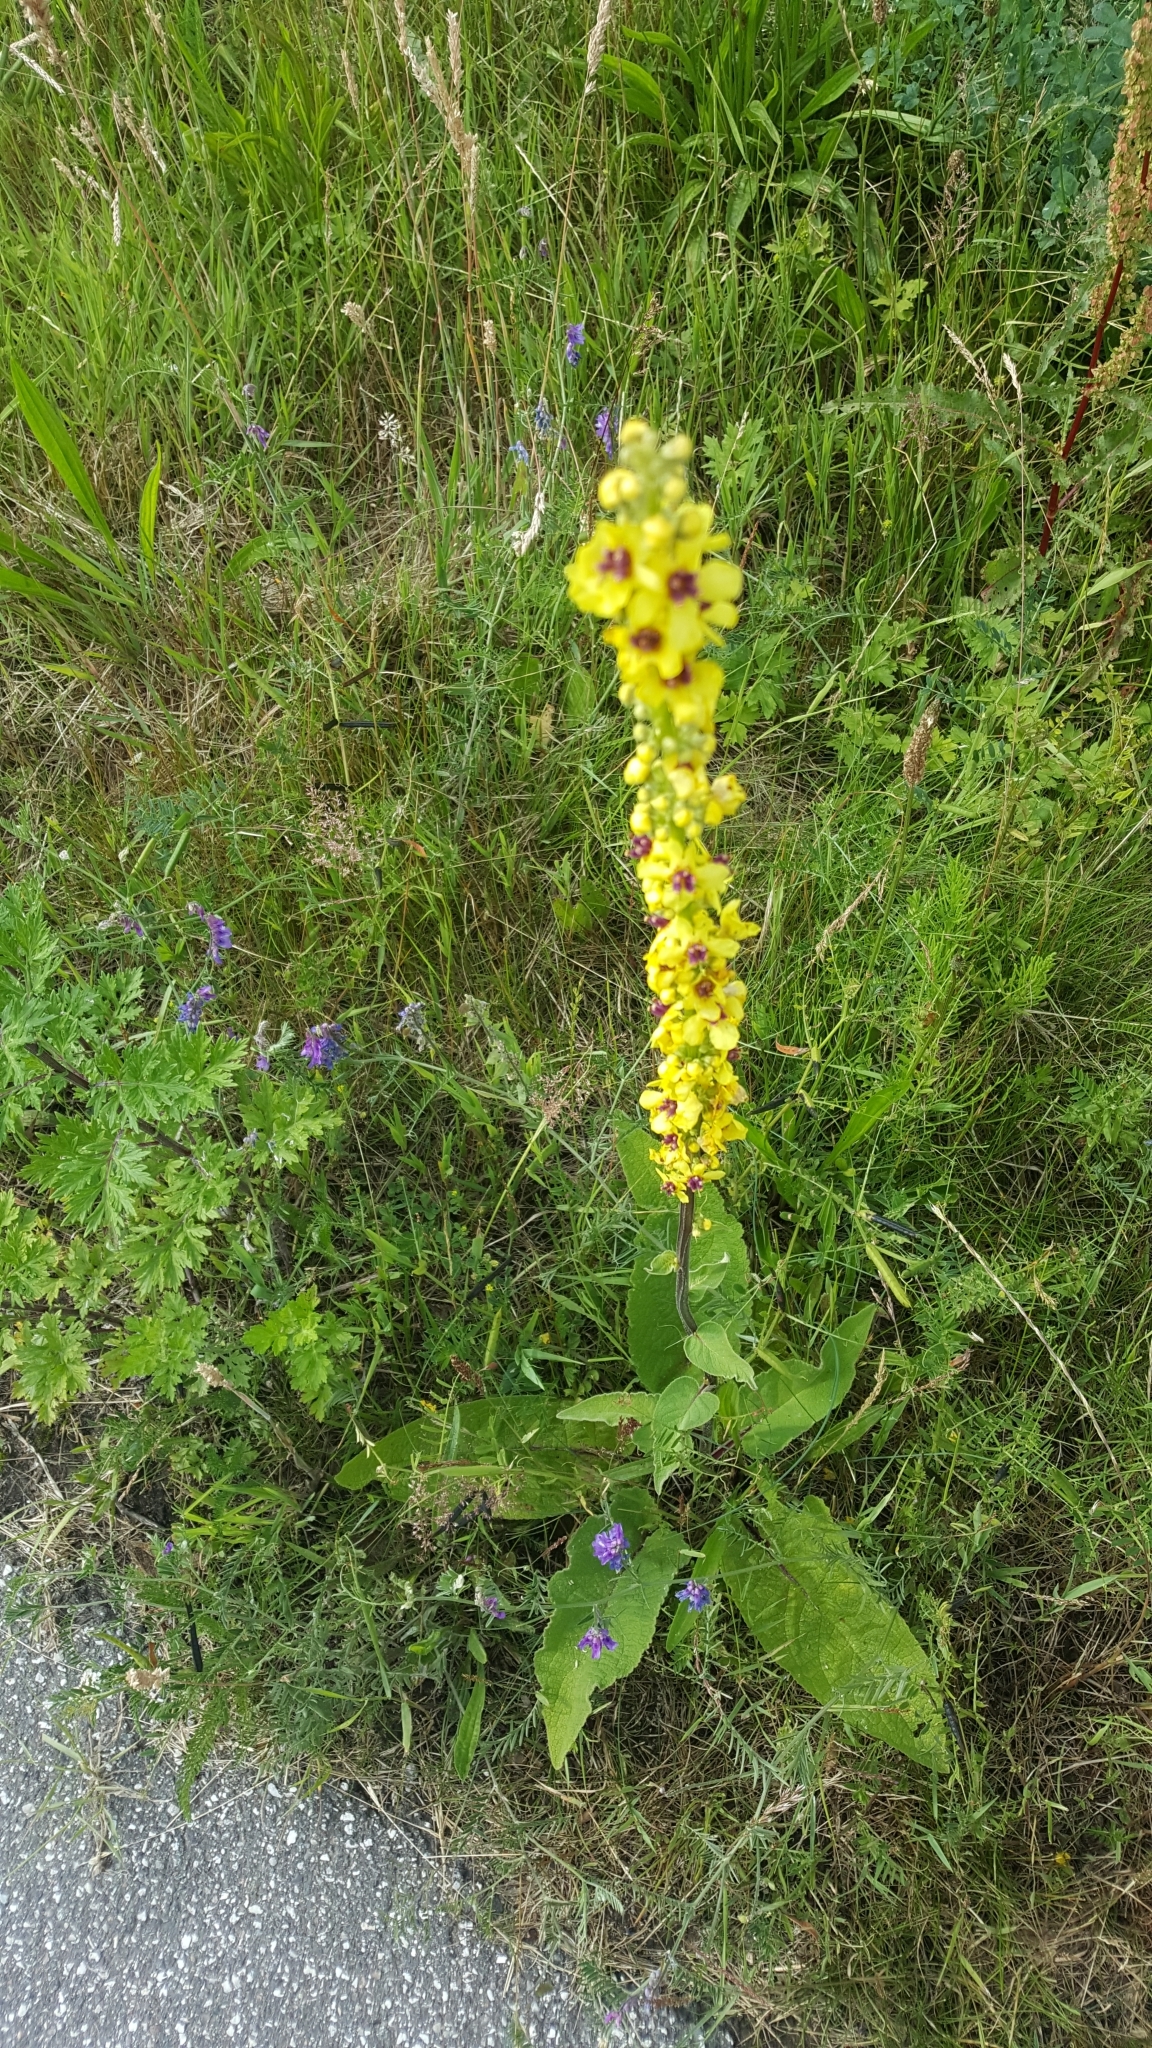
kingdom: Plantae
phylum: Tracheophyta
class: Magnoliopsida
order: Lamiales
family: Scrophulariaceae
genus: Verbascum
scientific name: Verbascum nigrum
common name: Dark mullein
